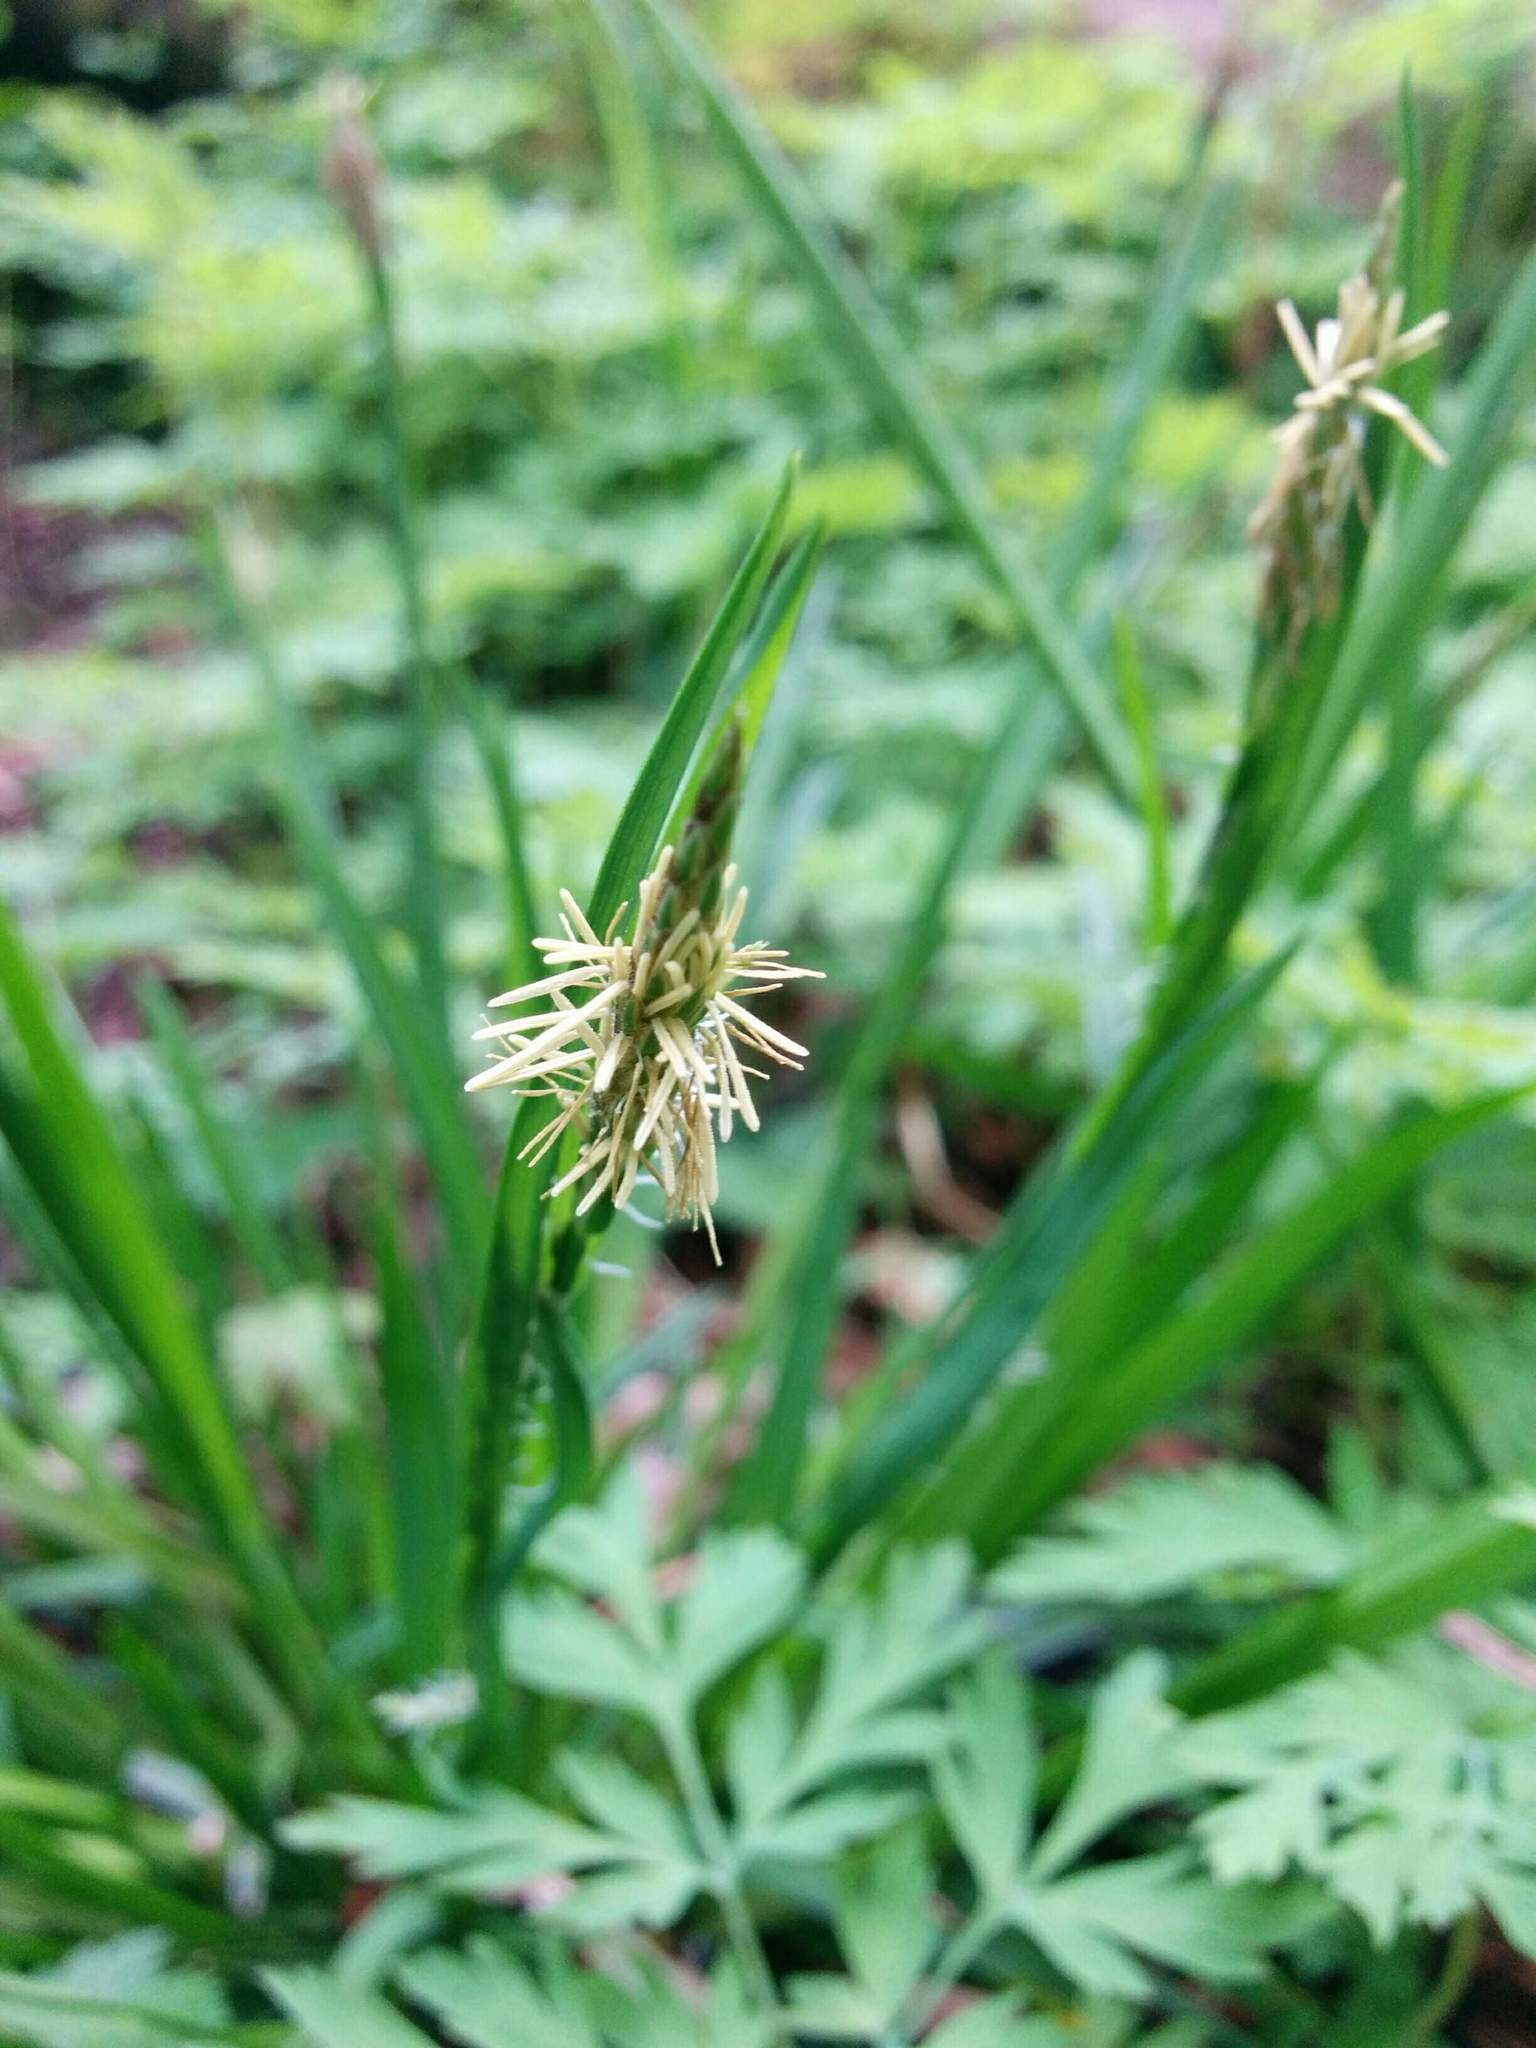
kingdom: Plantae
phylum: Tracheophyta
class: Liliopsida
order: Poales
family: Cyperaceae
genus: Carex
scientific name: Carex hendersonii
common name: Henderson's sedge
